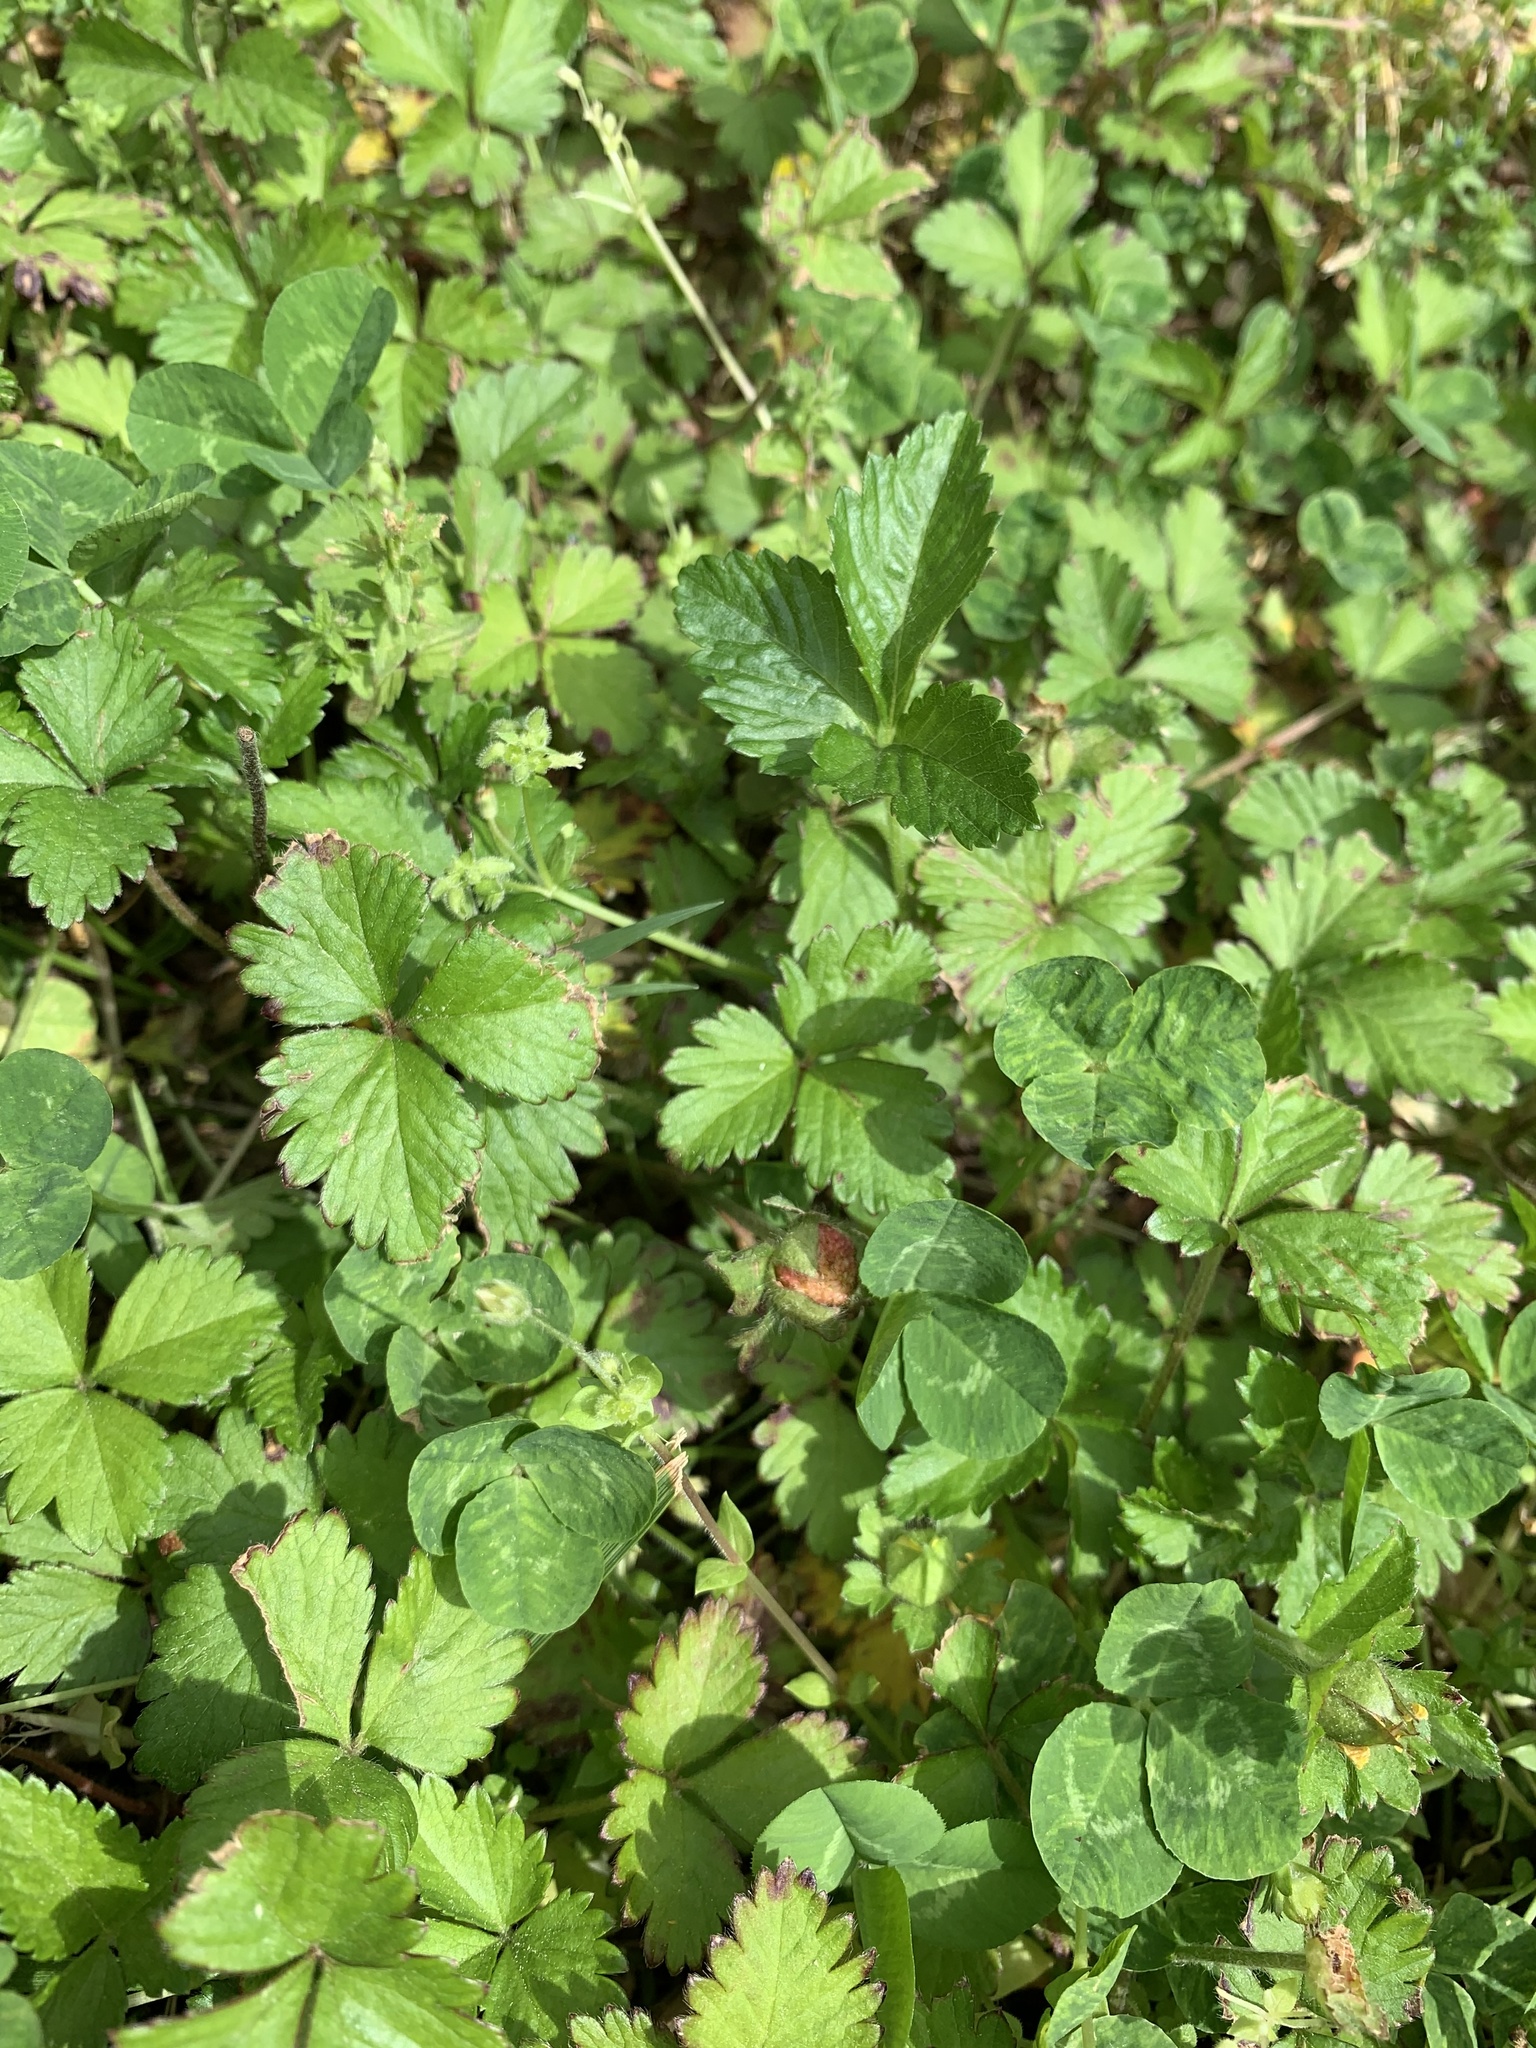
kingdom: Plantae
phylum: Tracheophyta
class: Magnoliopsida
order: Rosales
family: Rosaceae
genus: Potentilla
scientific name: Potentilla indica
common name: Yellow-flowered strawberry
